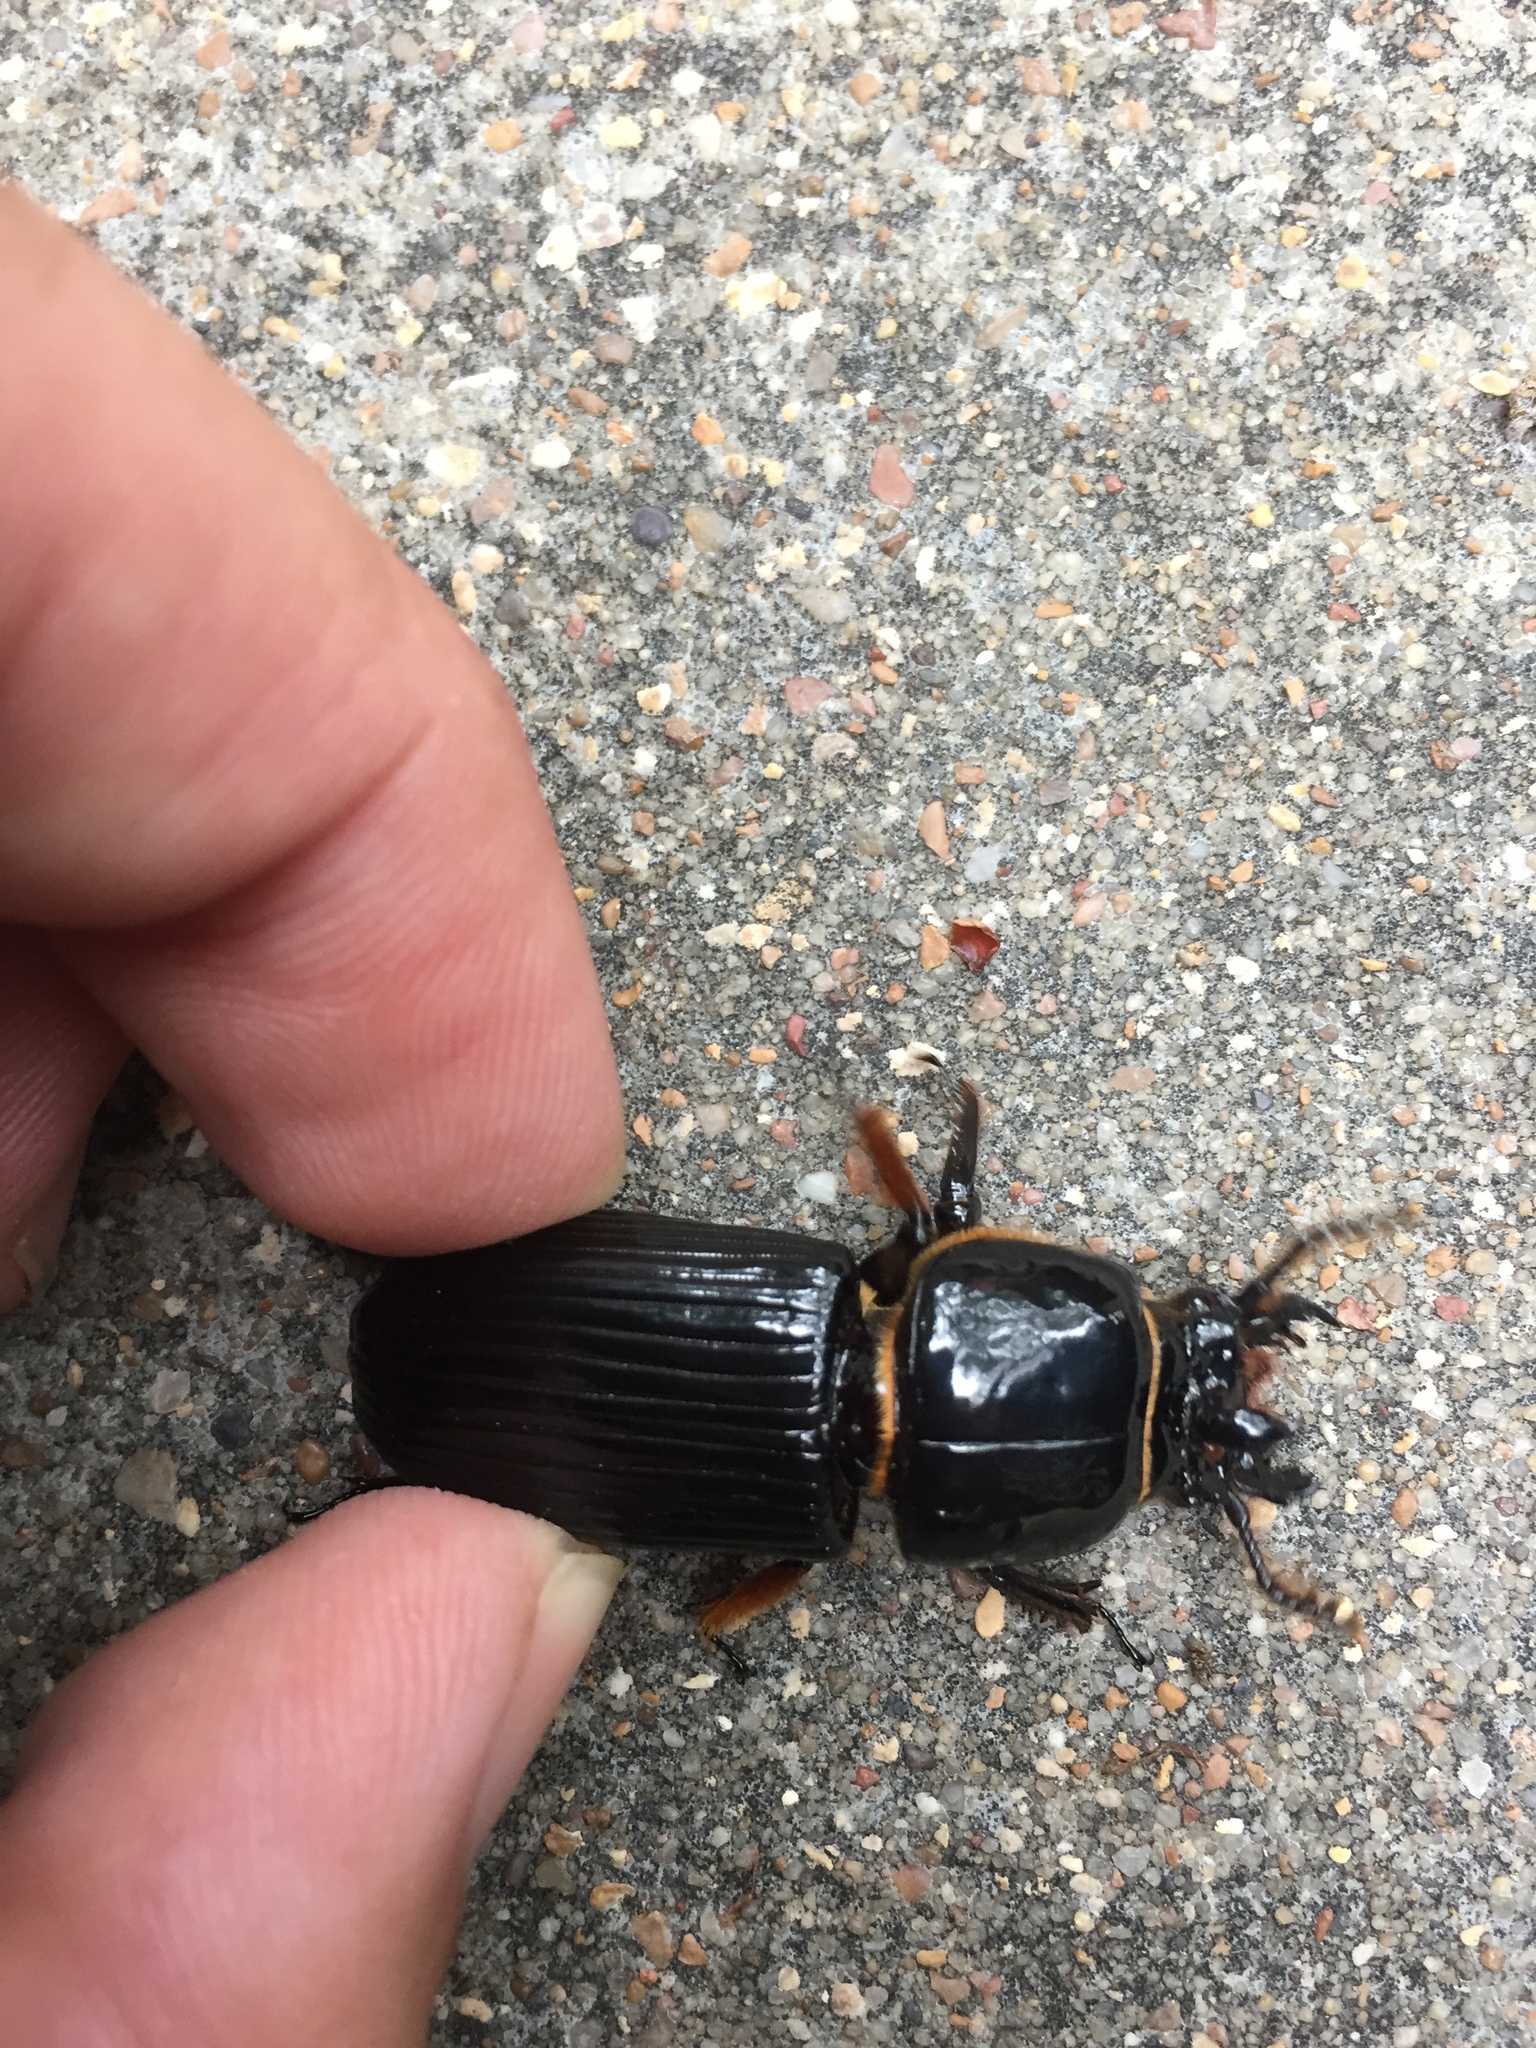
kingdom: Animalia
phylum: Arthropoda
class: Insecta
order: Coleoptera
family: Passalidae
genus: Odontotaenius
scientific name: Odontotaenius disjunctus
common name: Patent leather beetle
